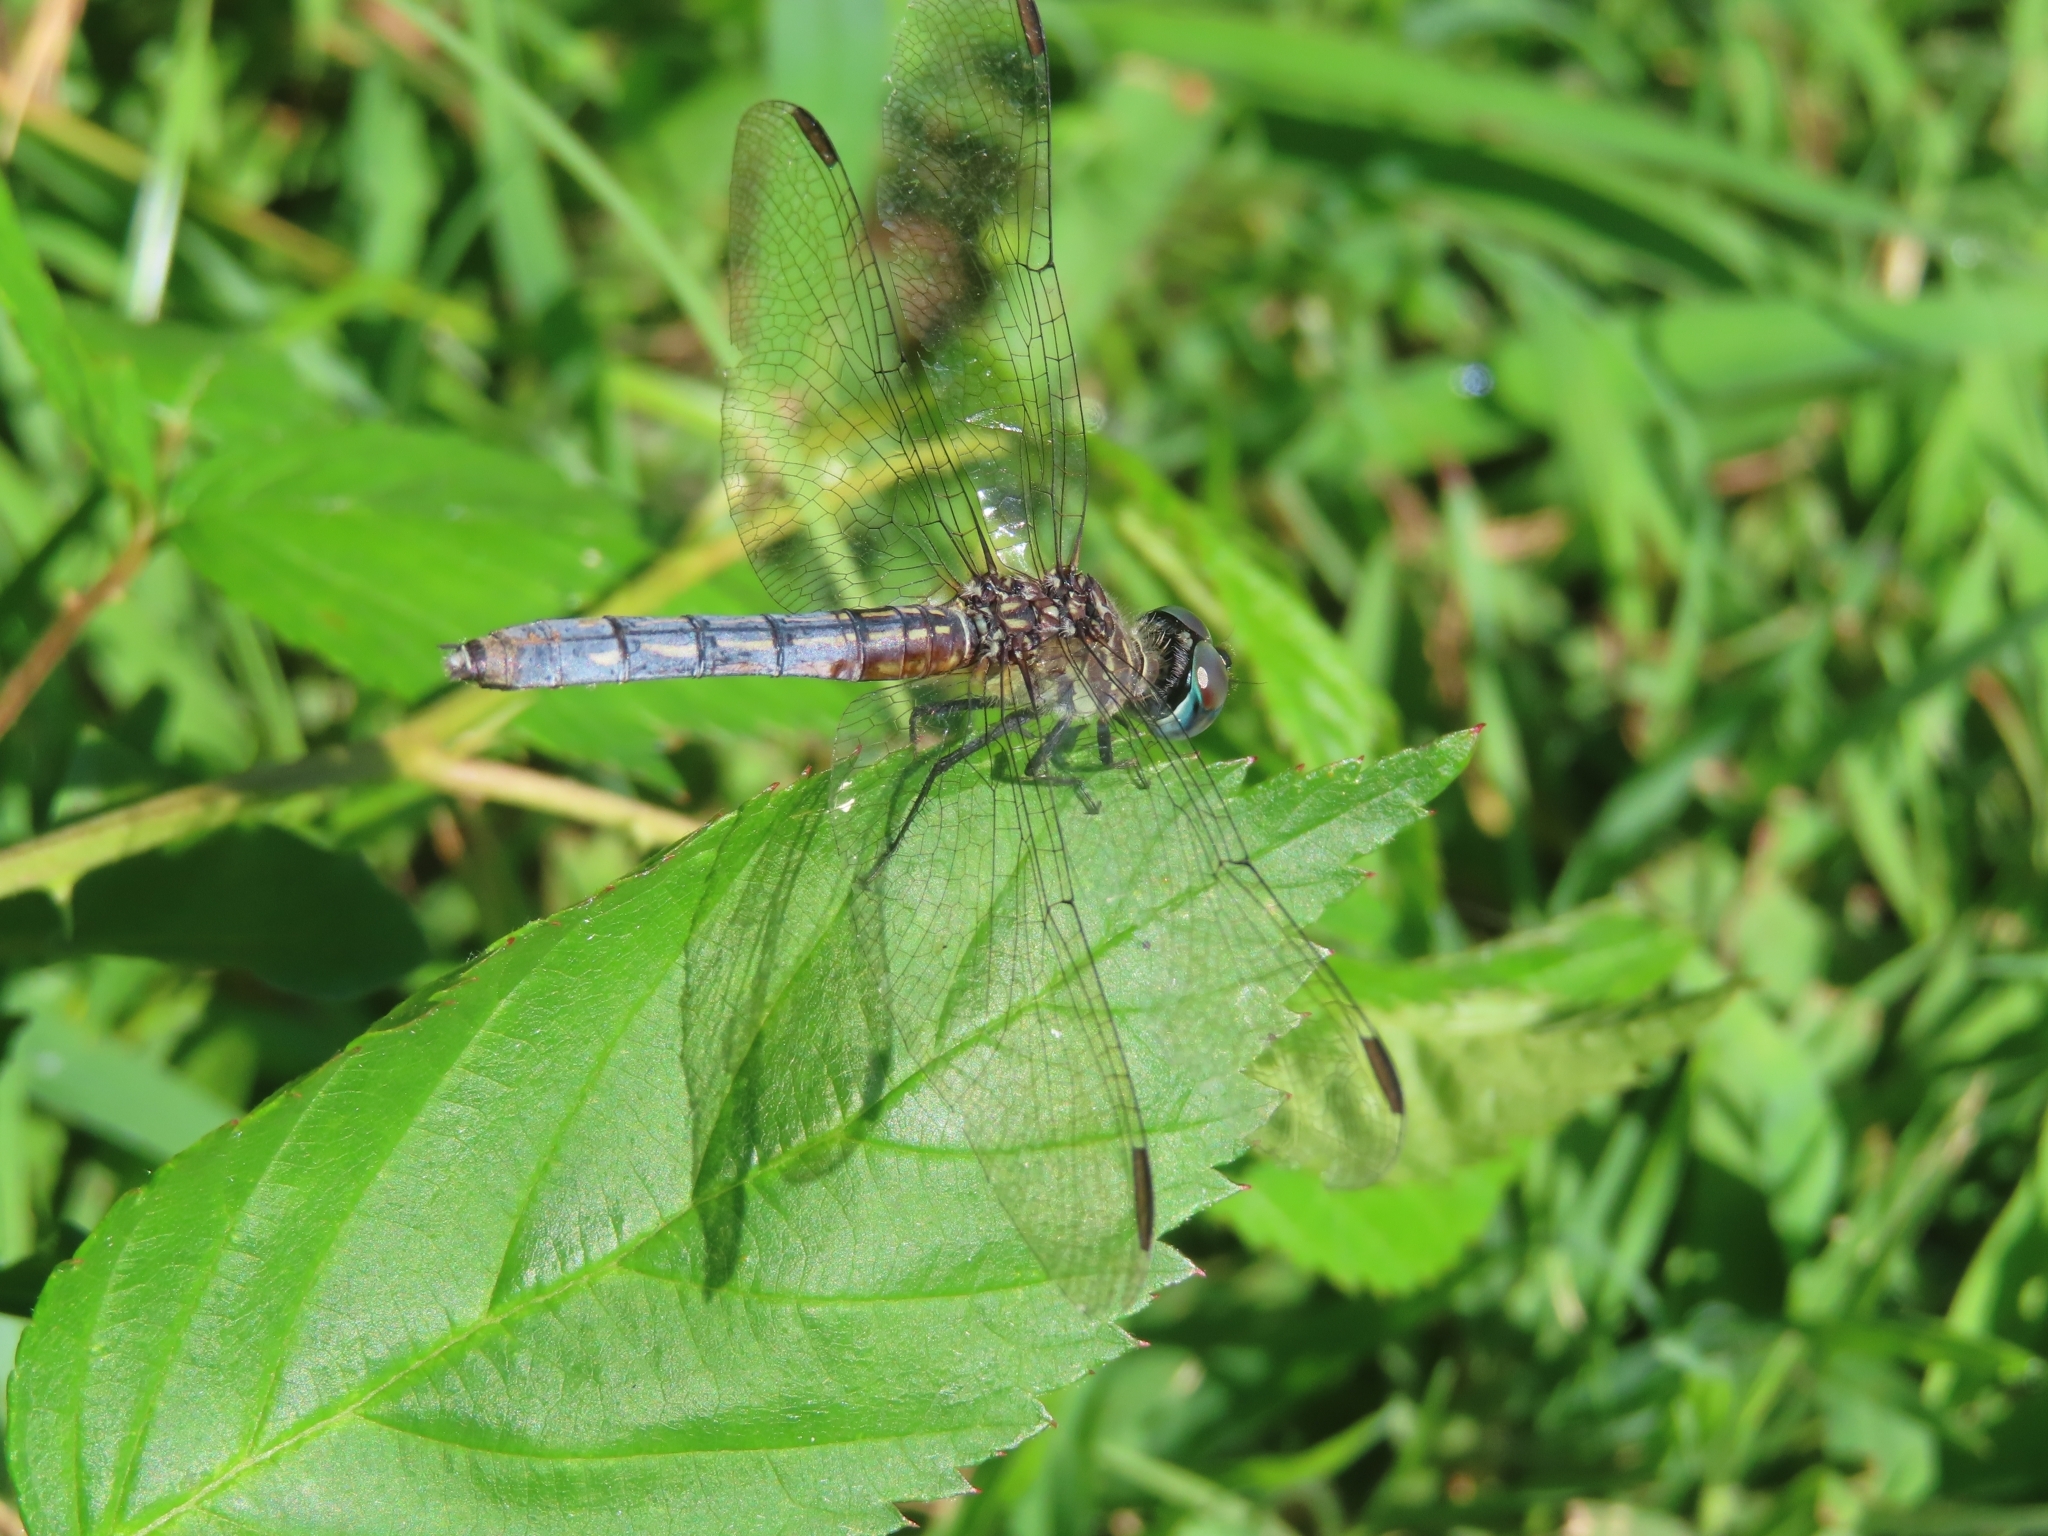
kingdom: Animalia
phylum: Arthropoda
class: Insecta
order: Odonata
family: Libellulidae
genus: Pachydiplax
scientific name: Pachydiplax longipennis
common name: Blue dasher
